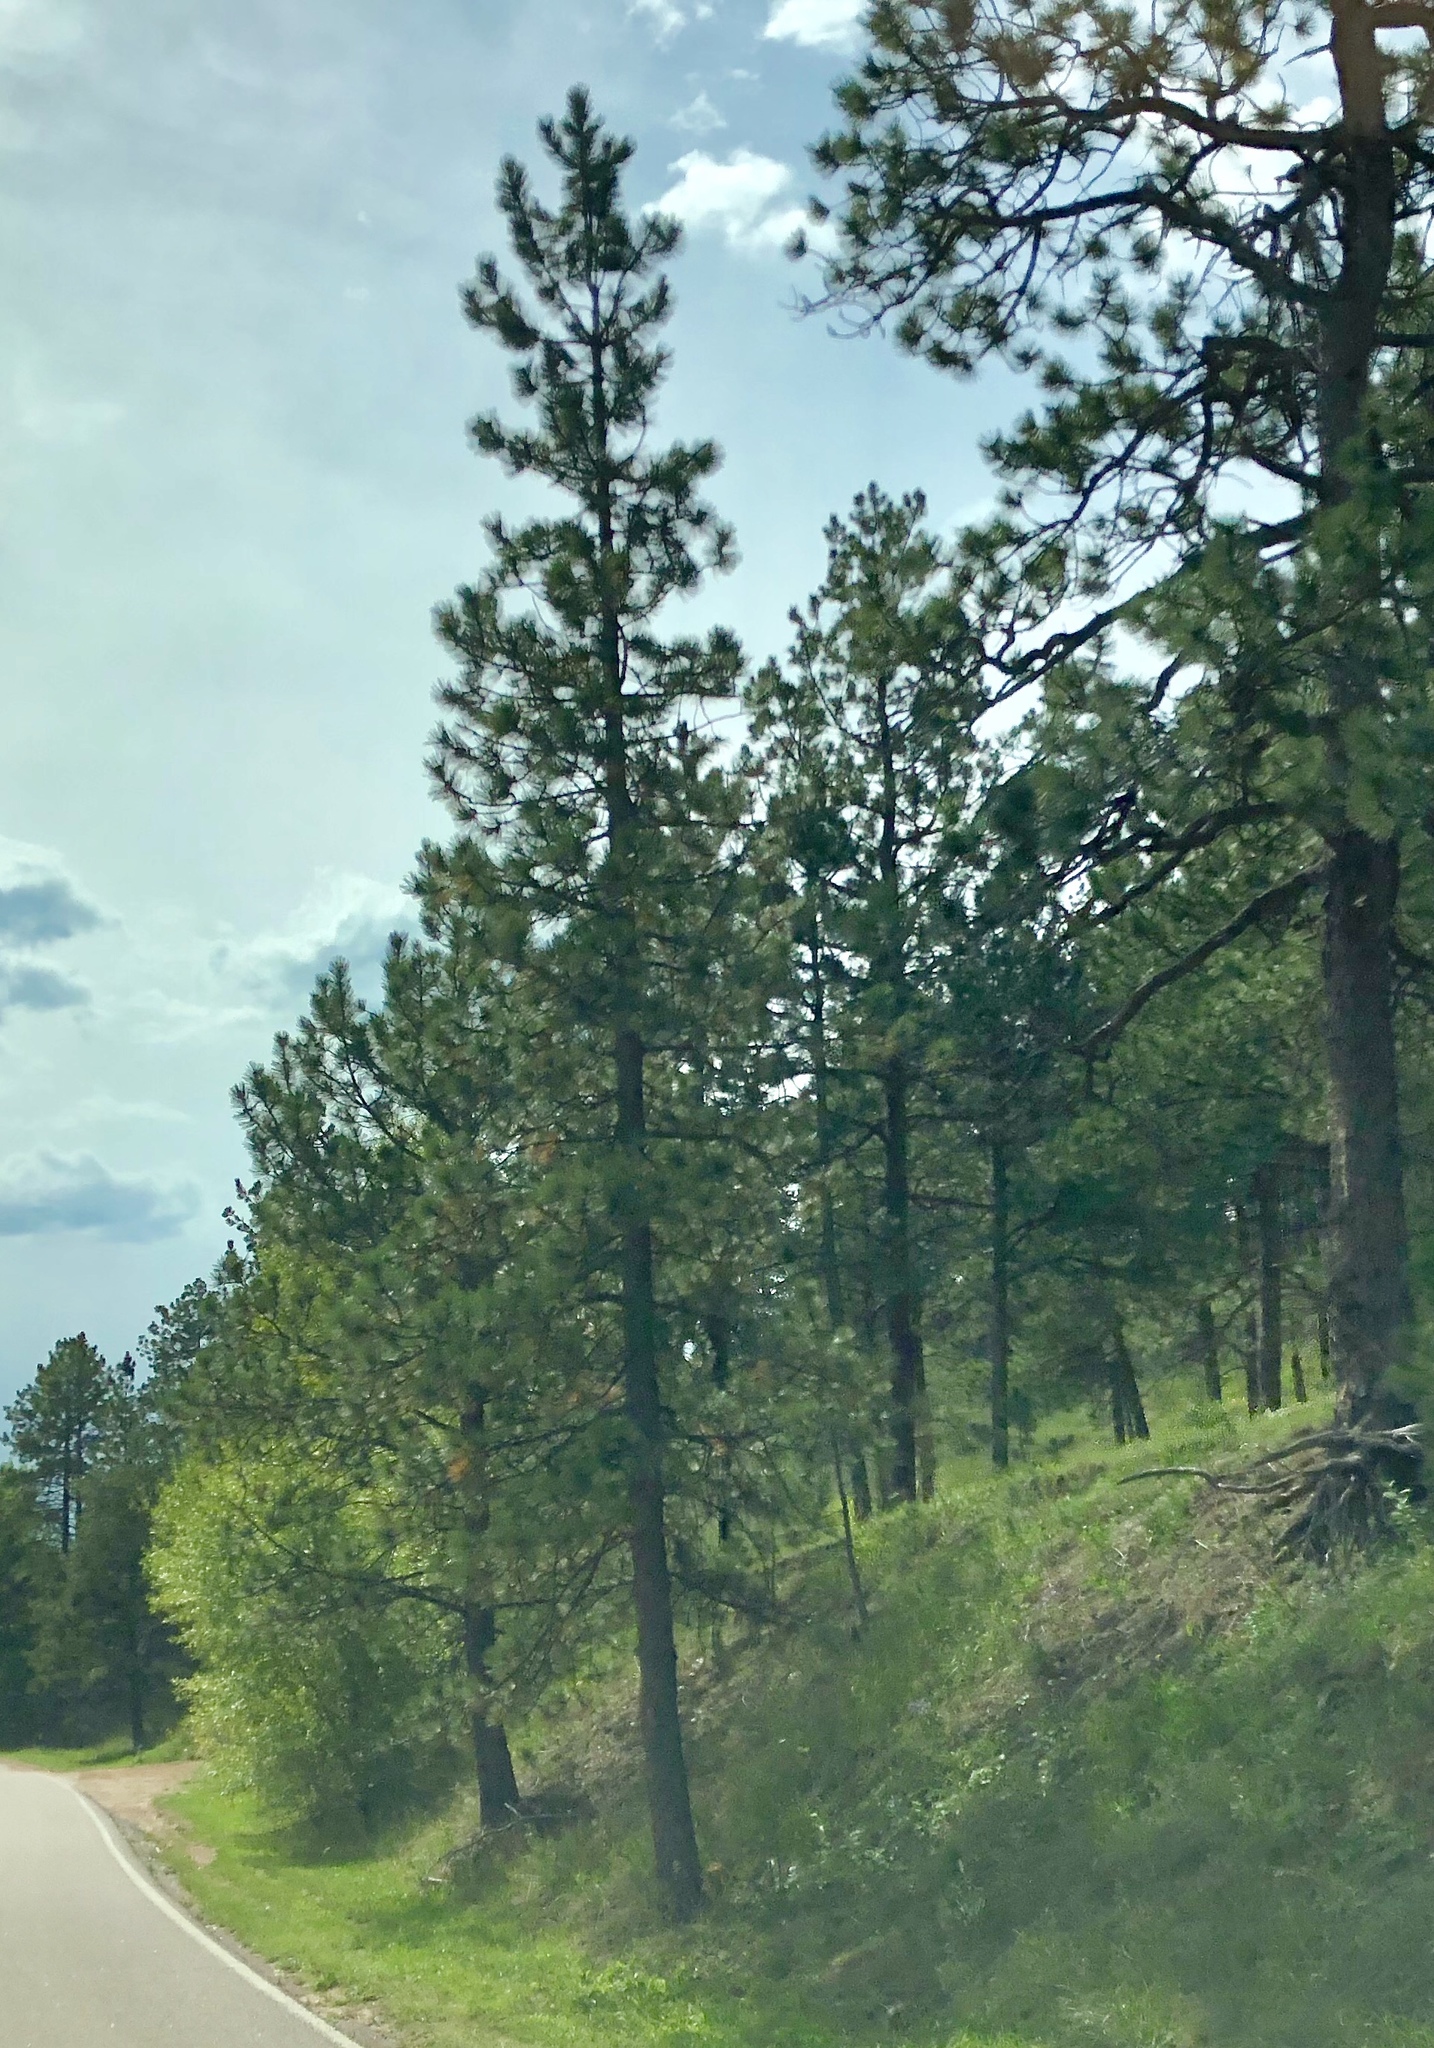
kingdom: Plantae
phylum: Tracheophyta
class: Pinopsida
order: Pinales
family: Pinaceae
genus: Pinus
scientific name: Pinus ponderosa
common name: Western yellow-pine
